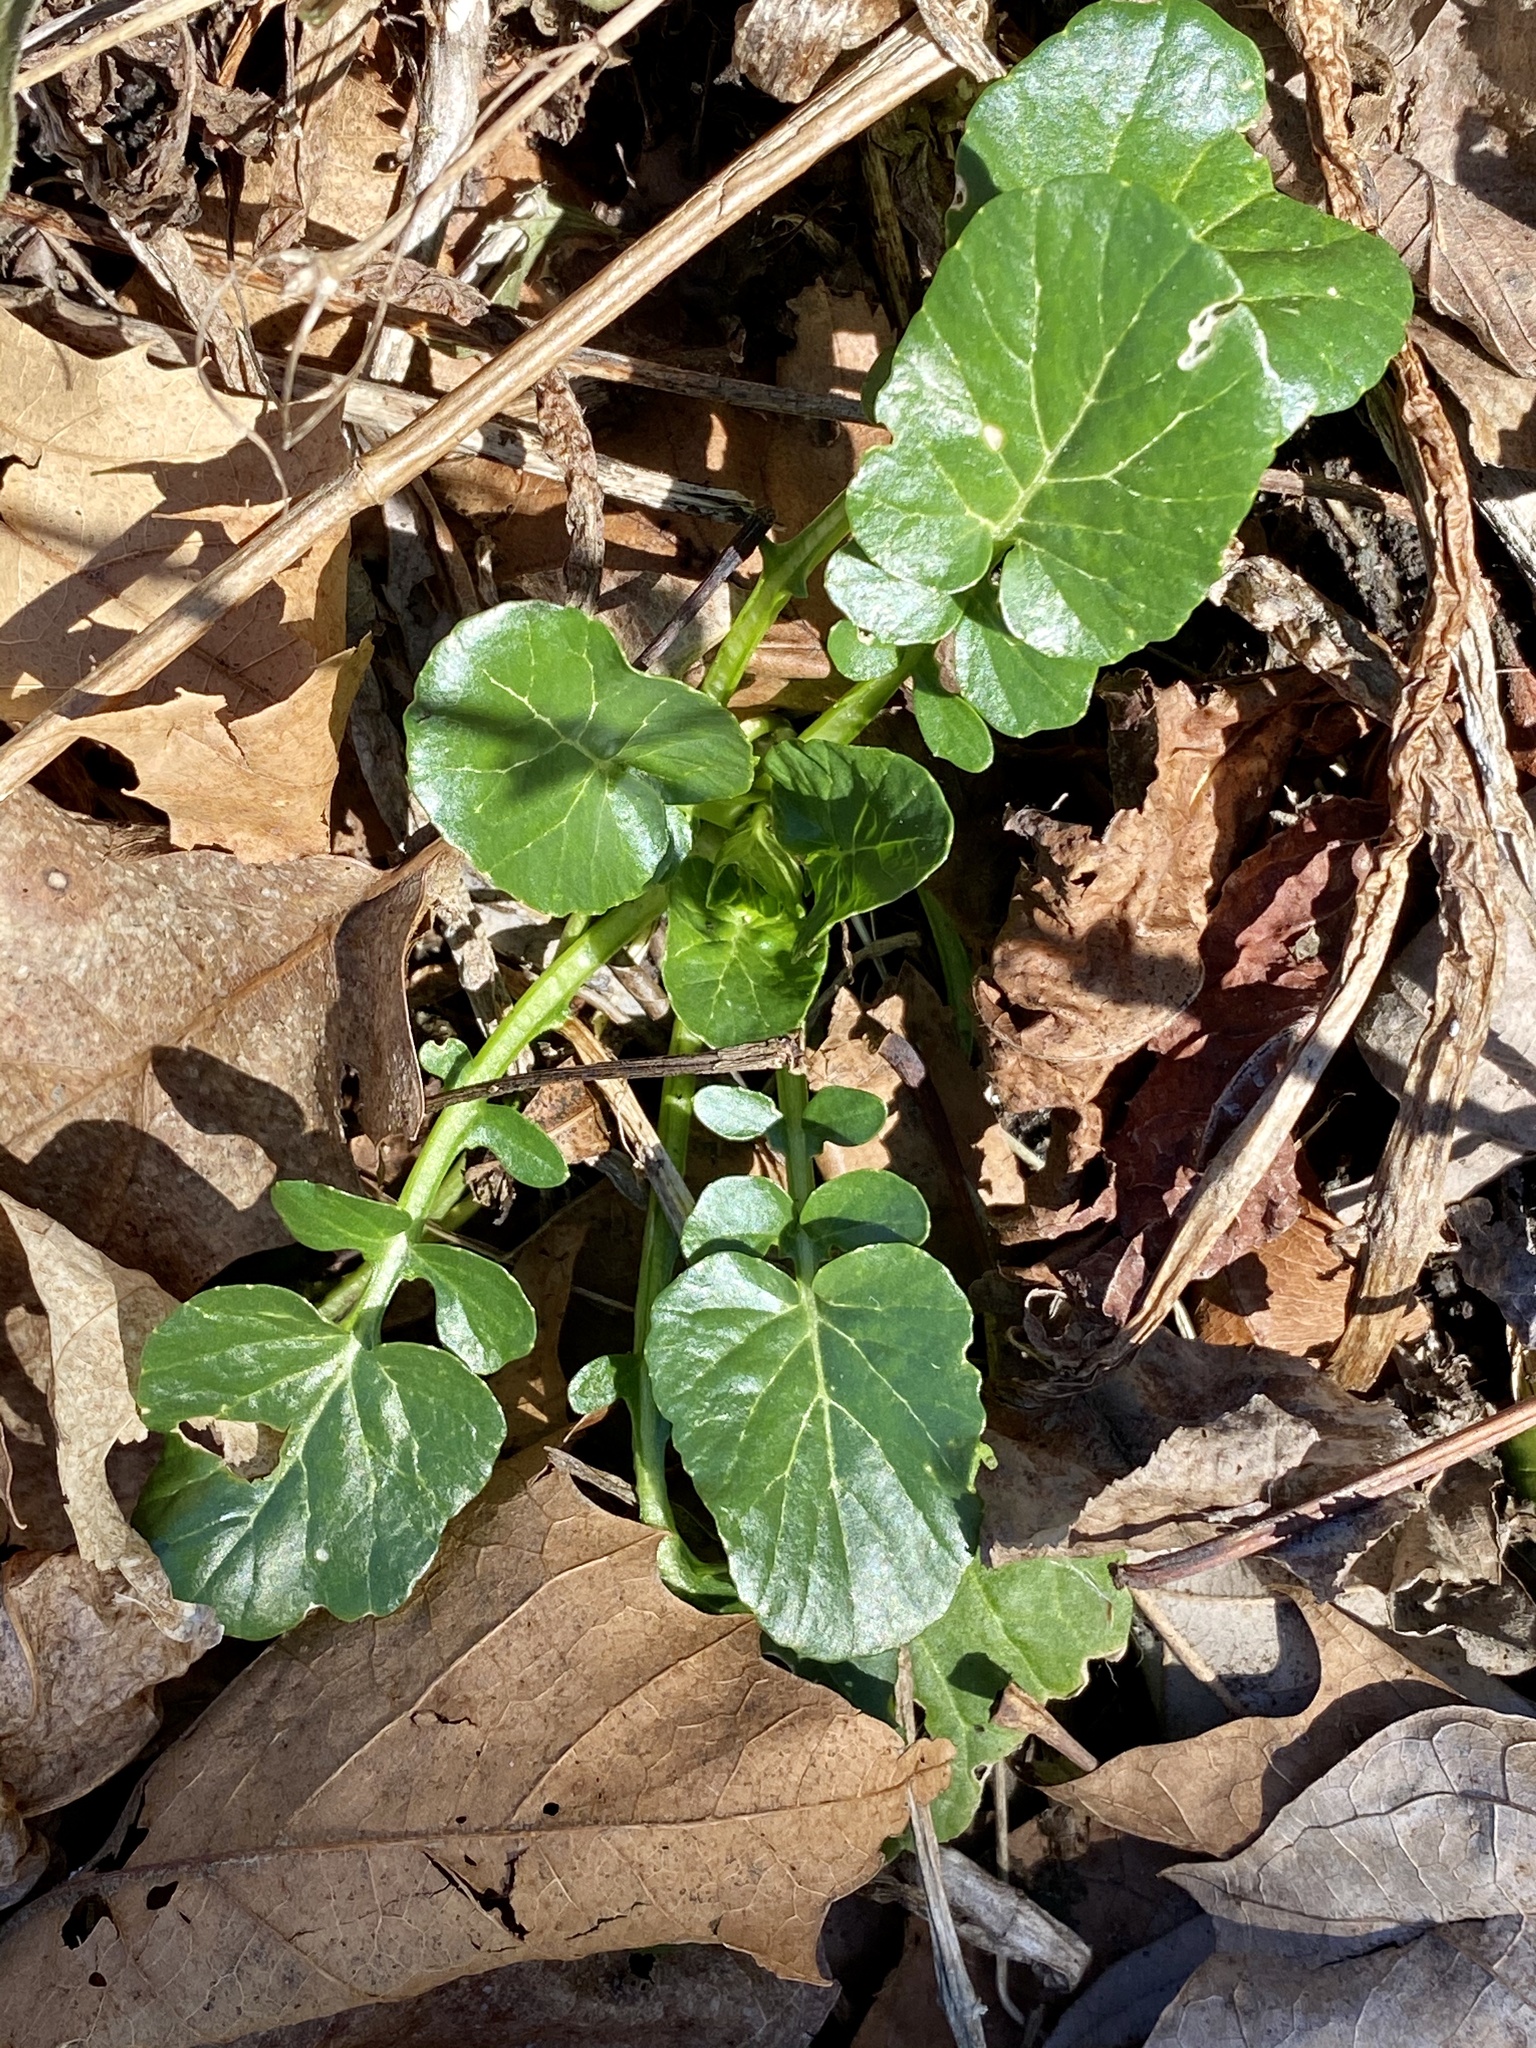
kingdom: Plantae
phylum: Tracheophyta
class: Magnoliopsida
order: Brassicales
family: Brassicaceae
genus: Barbarea
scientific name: Barbarea vulgaris
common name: Cressy-greens
